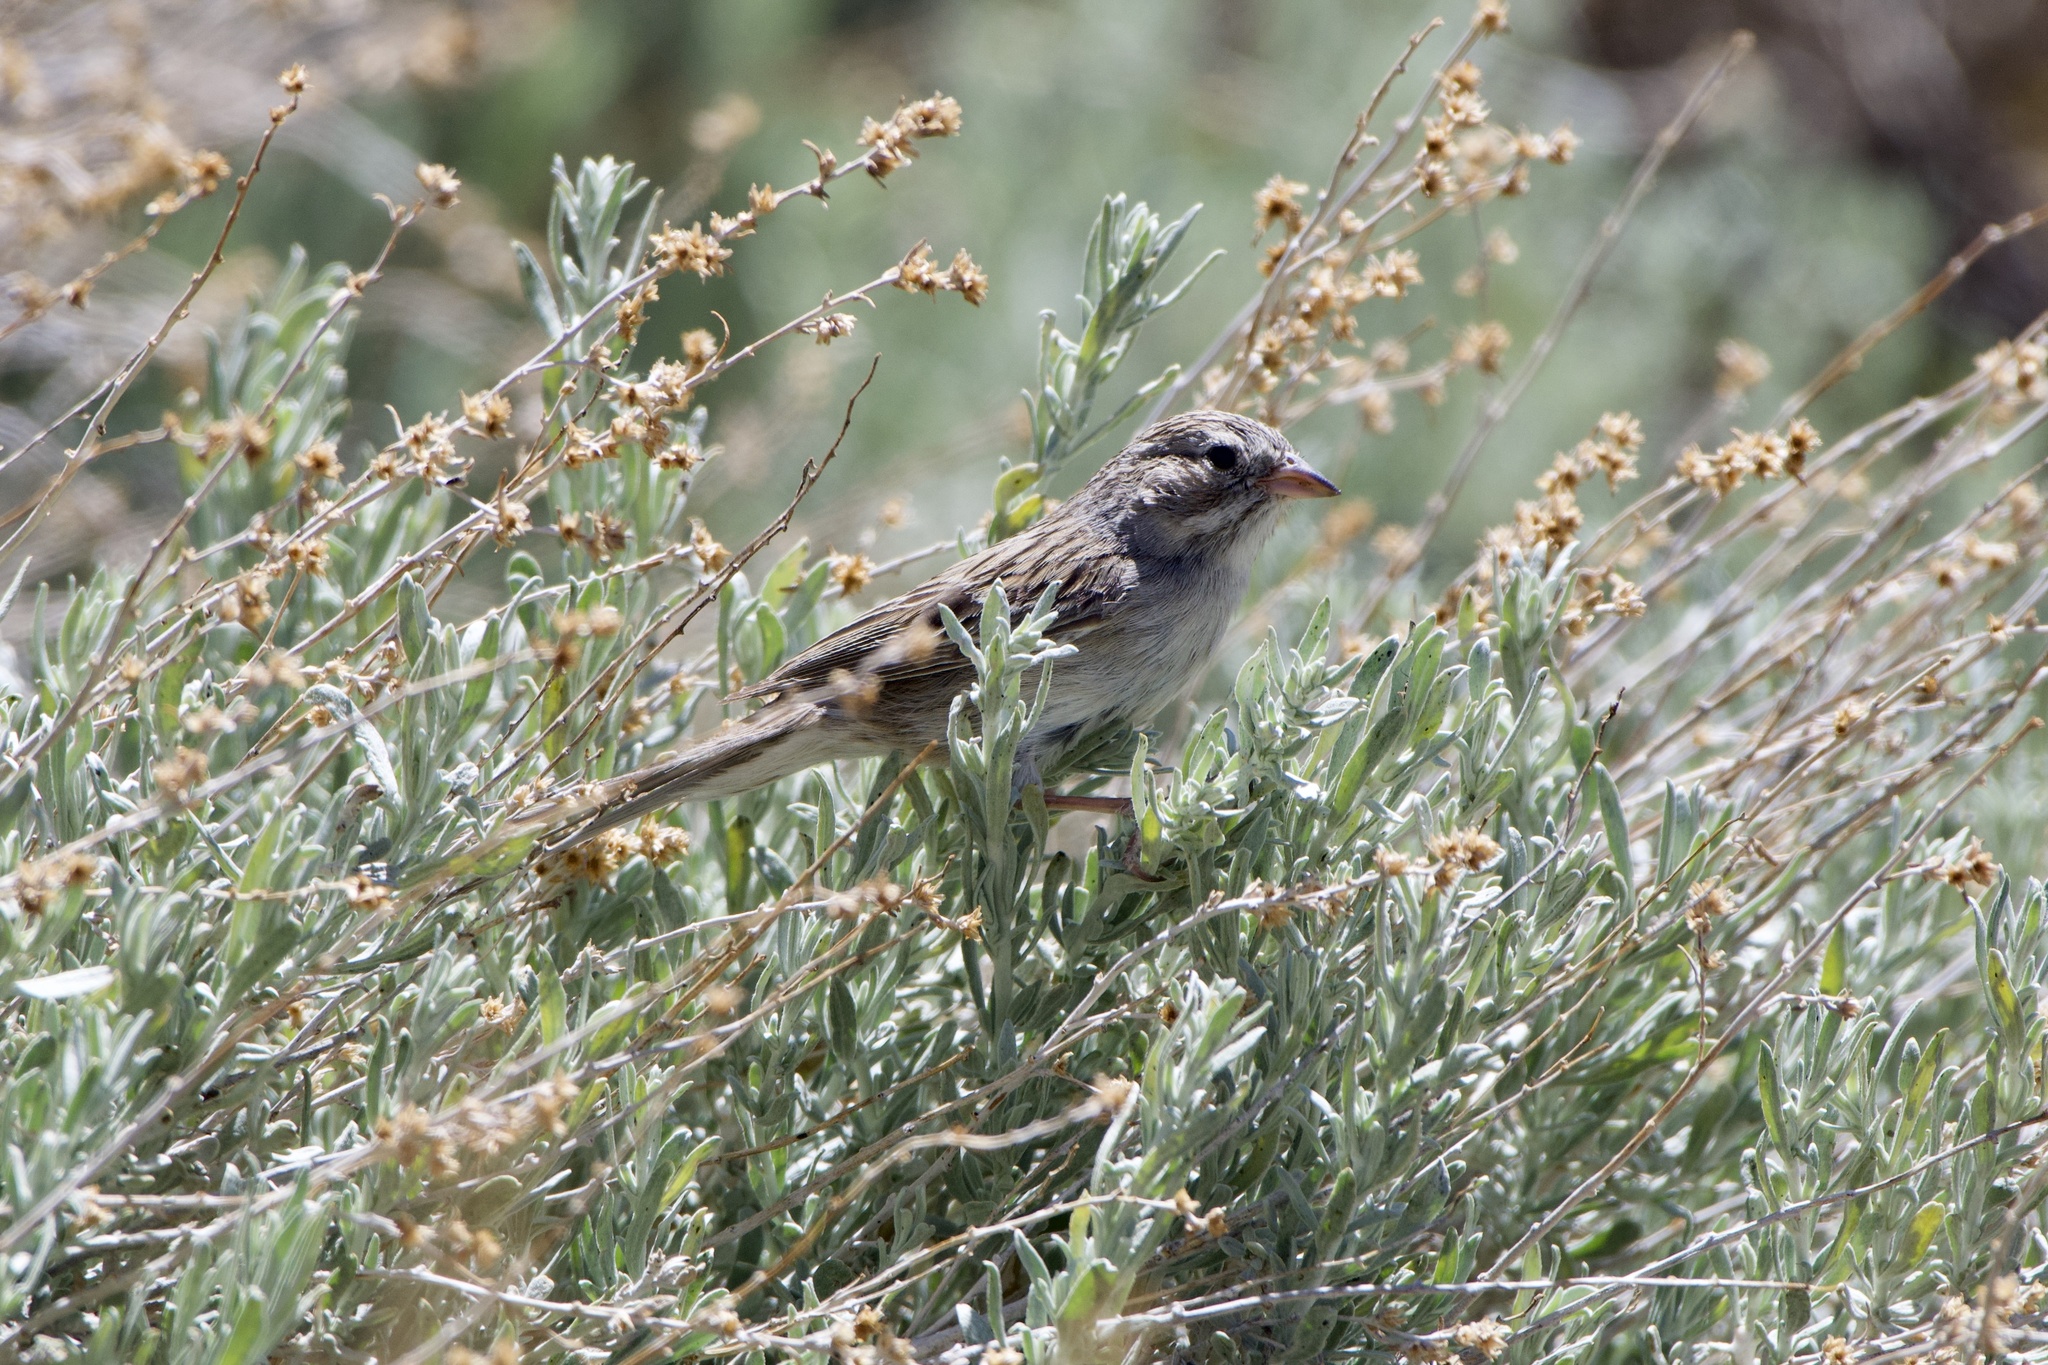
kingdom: Animalia
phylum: Chordata
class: Aves
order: Passeriformes
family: Passerellidae
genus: Spizella
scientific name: Spizella breweri
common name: Brewer's sparrow
